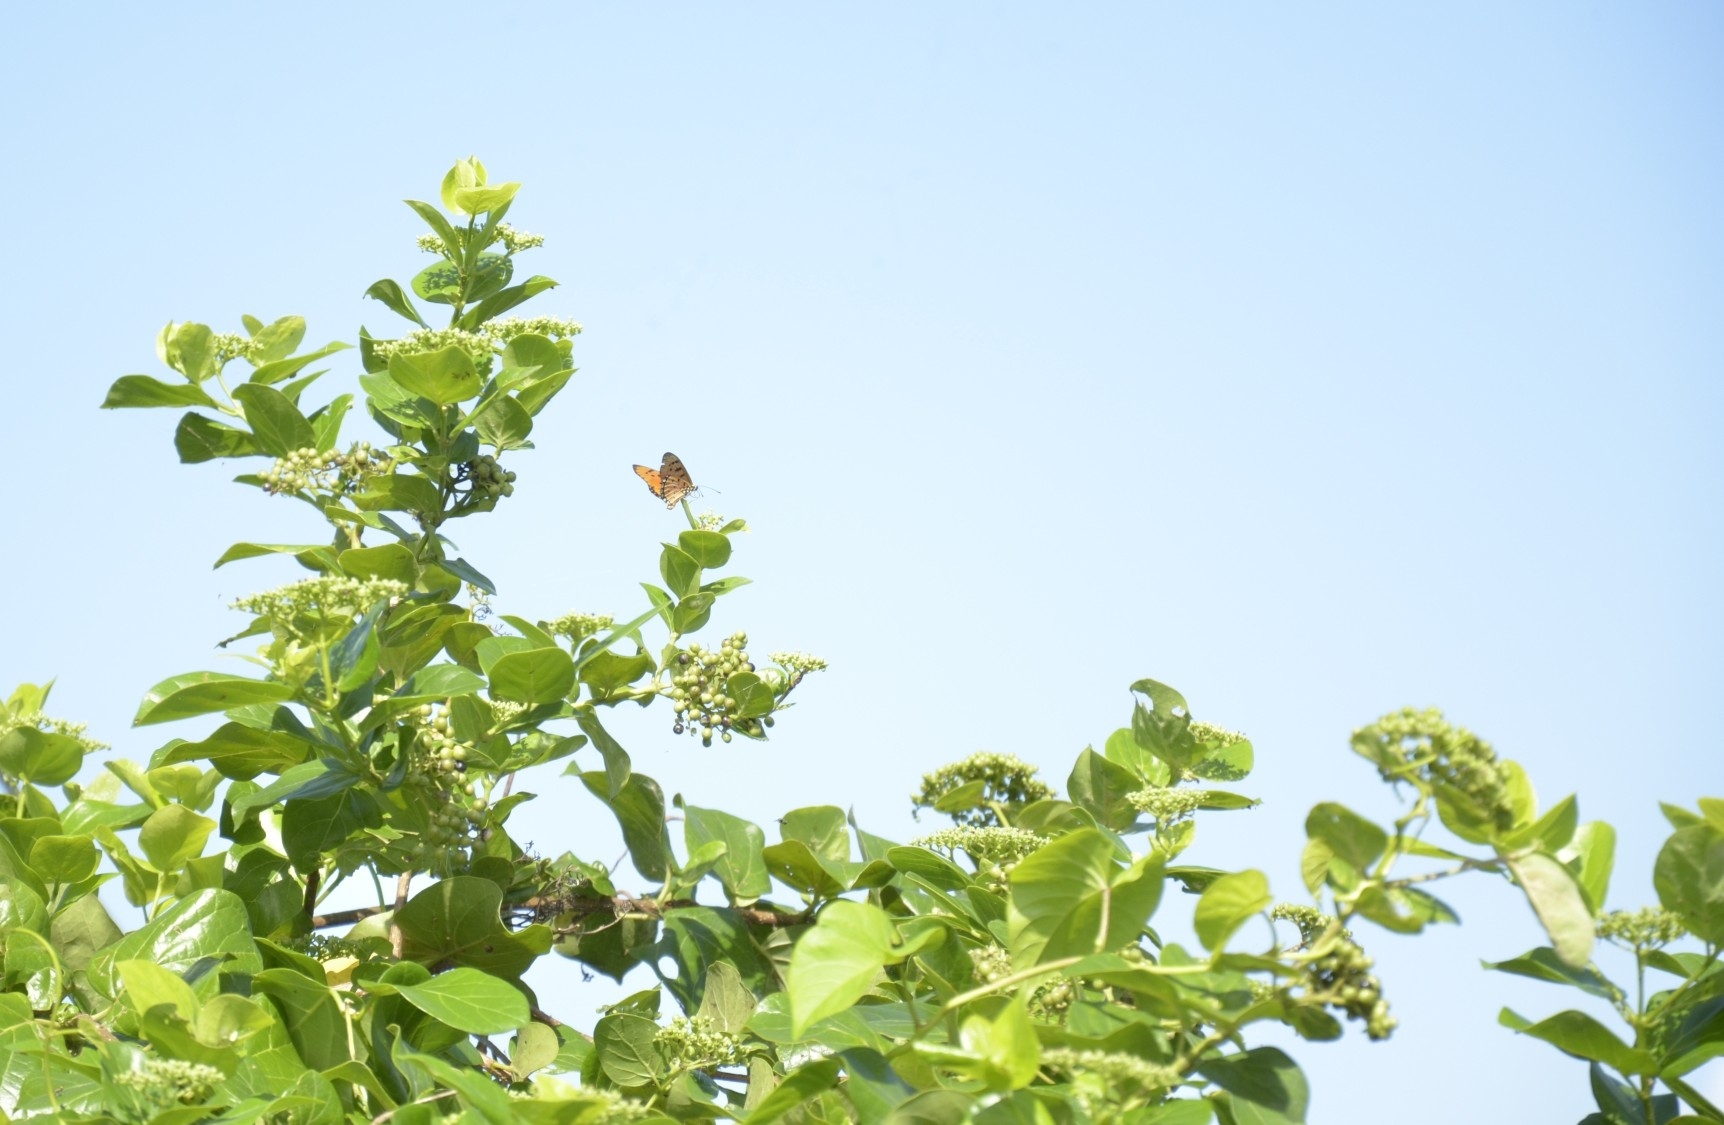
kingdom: Plantae
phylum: Tracheophyta
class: Magnoliopsida
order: Lamiales
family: Lamiaceae
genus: Premna
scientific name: Premna serratifolia
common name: Bastard guelder
